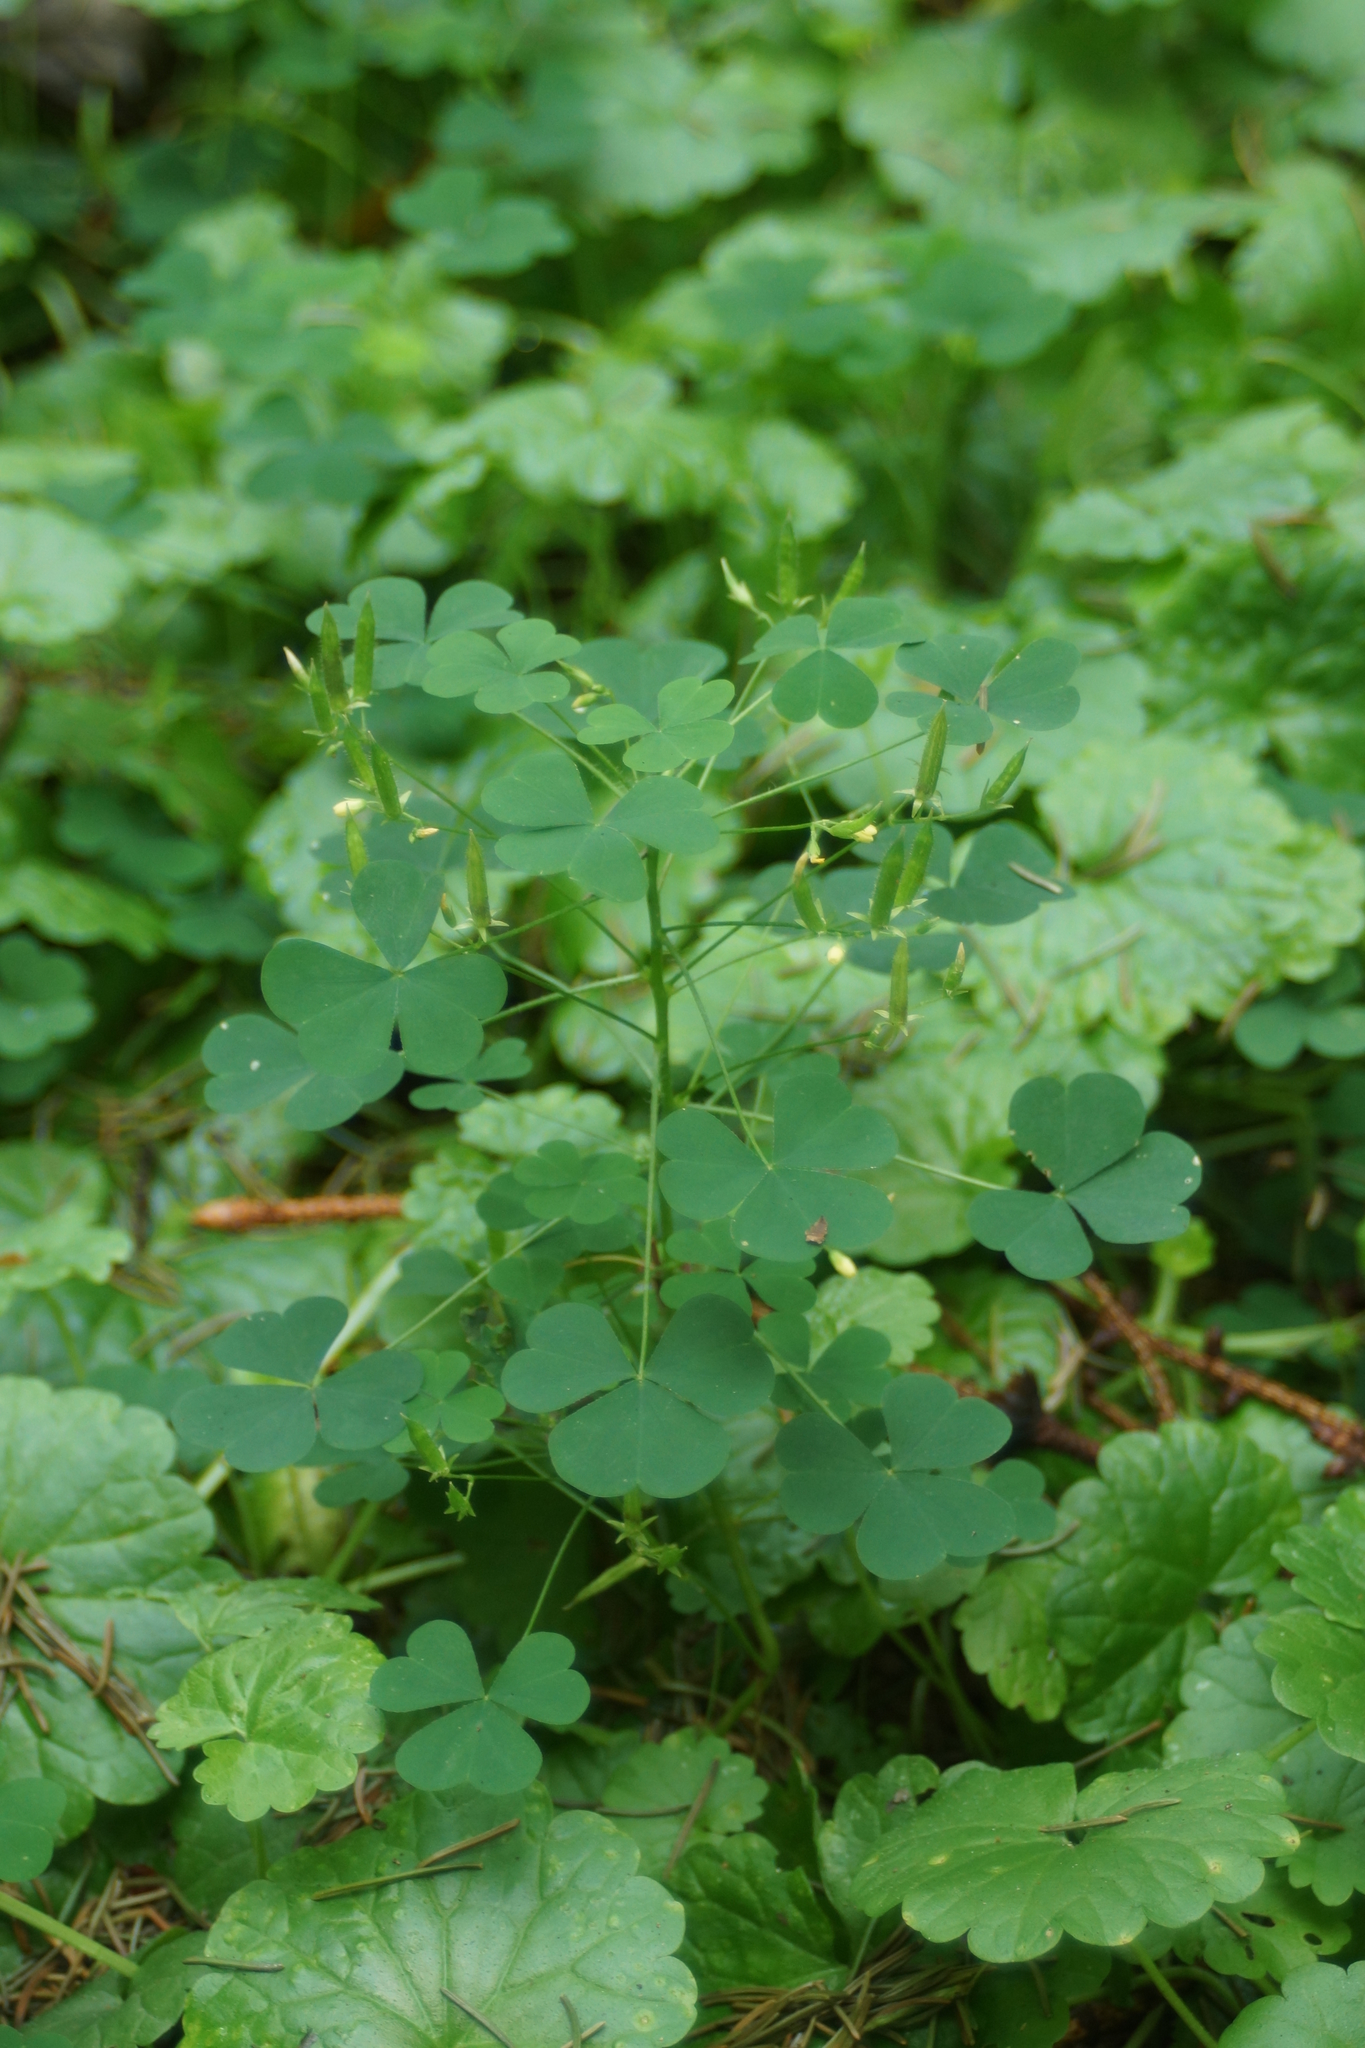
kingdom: Plantae
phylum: Tracheophyta
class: Magnoliopsida
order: Oxalidales
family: Oxalidaceae
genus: Oxalis
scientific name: Oxalis stricta
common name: Upright yellow-sorrel
